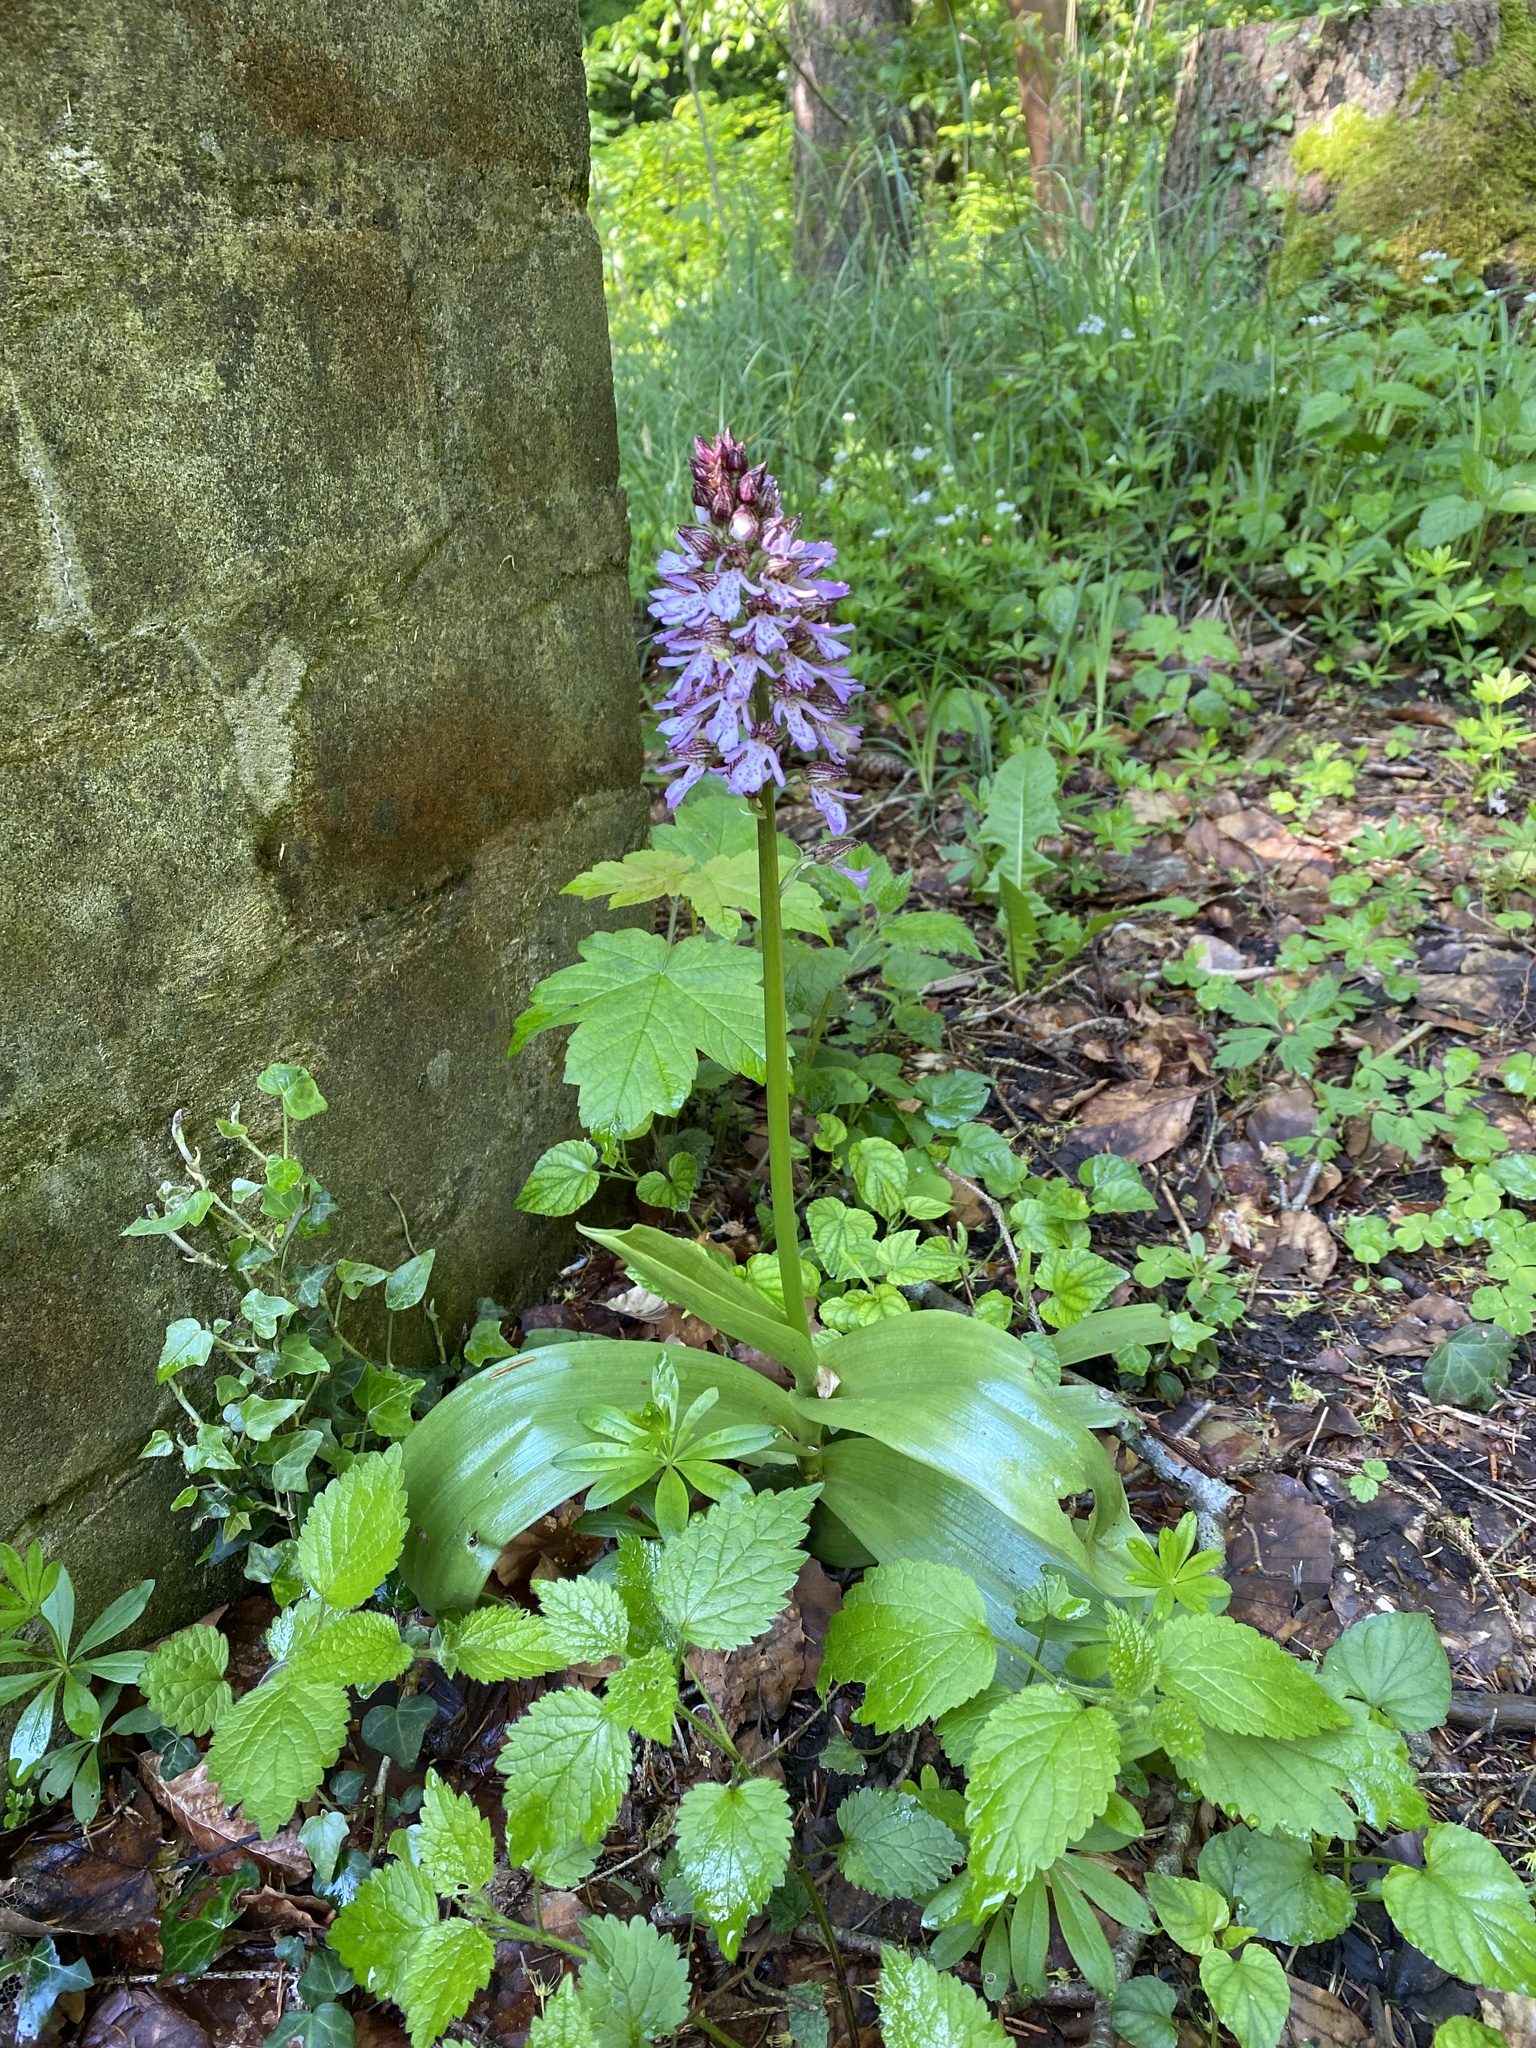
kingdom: Plantae
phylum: Tracheophyta
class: Liliopsida
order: Asparagales
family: Orchidaceae
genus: Orchis
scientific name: Orchis purpurea
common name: Lady orchid
